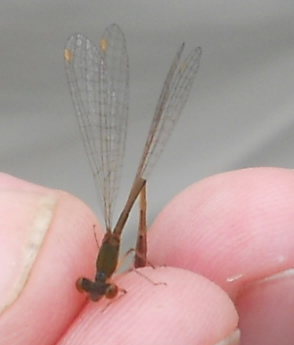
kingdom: Animalia
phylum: Arthropoda
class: Insecta
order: Odonata
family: Coenagrionidae
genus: Nehalennia
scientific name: Nehalennia speciosa
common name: Sedgling
